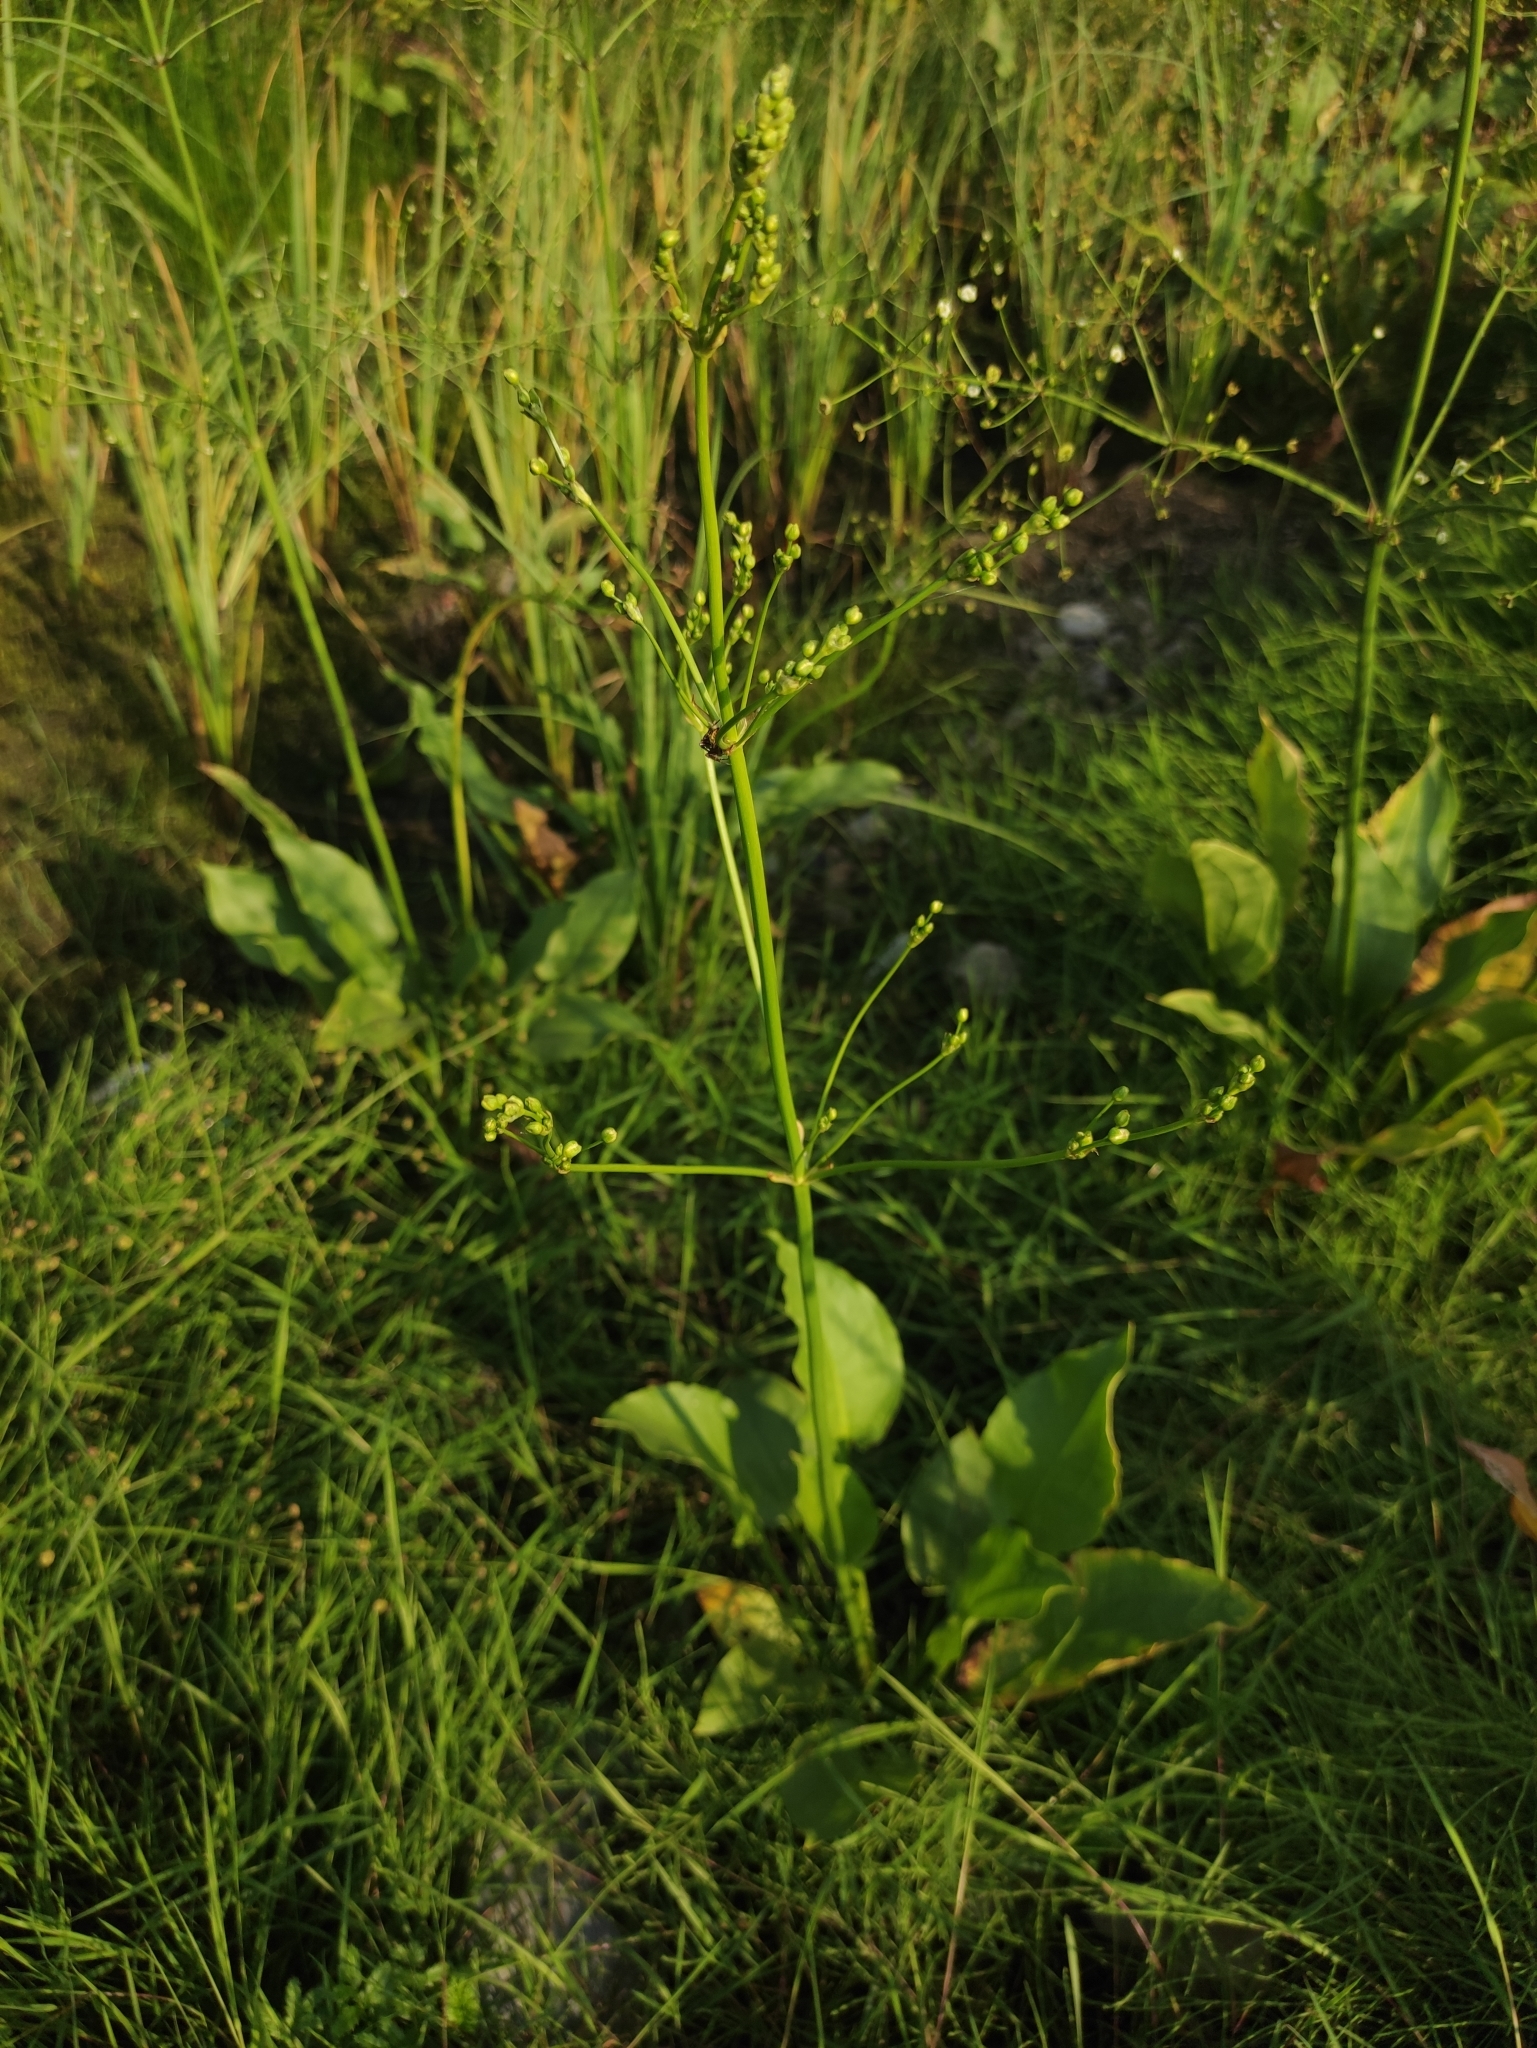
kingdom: Plantae
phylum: Tracheophyta
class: Liliopsida
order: Alismatales
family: Alismataceae
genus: Alisma
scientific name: Alisma plantago-aquatica
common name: Water-plantain
